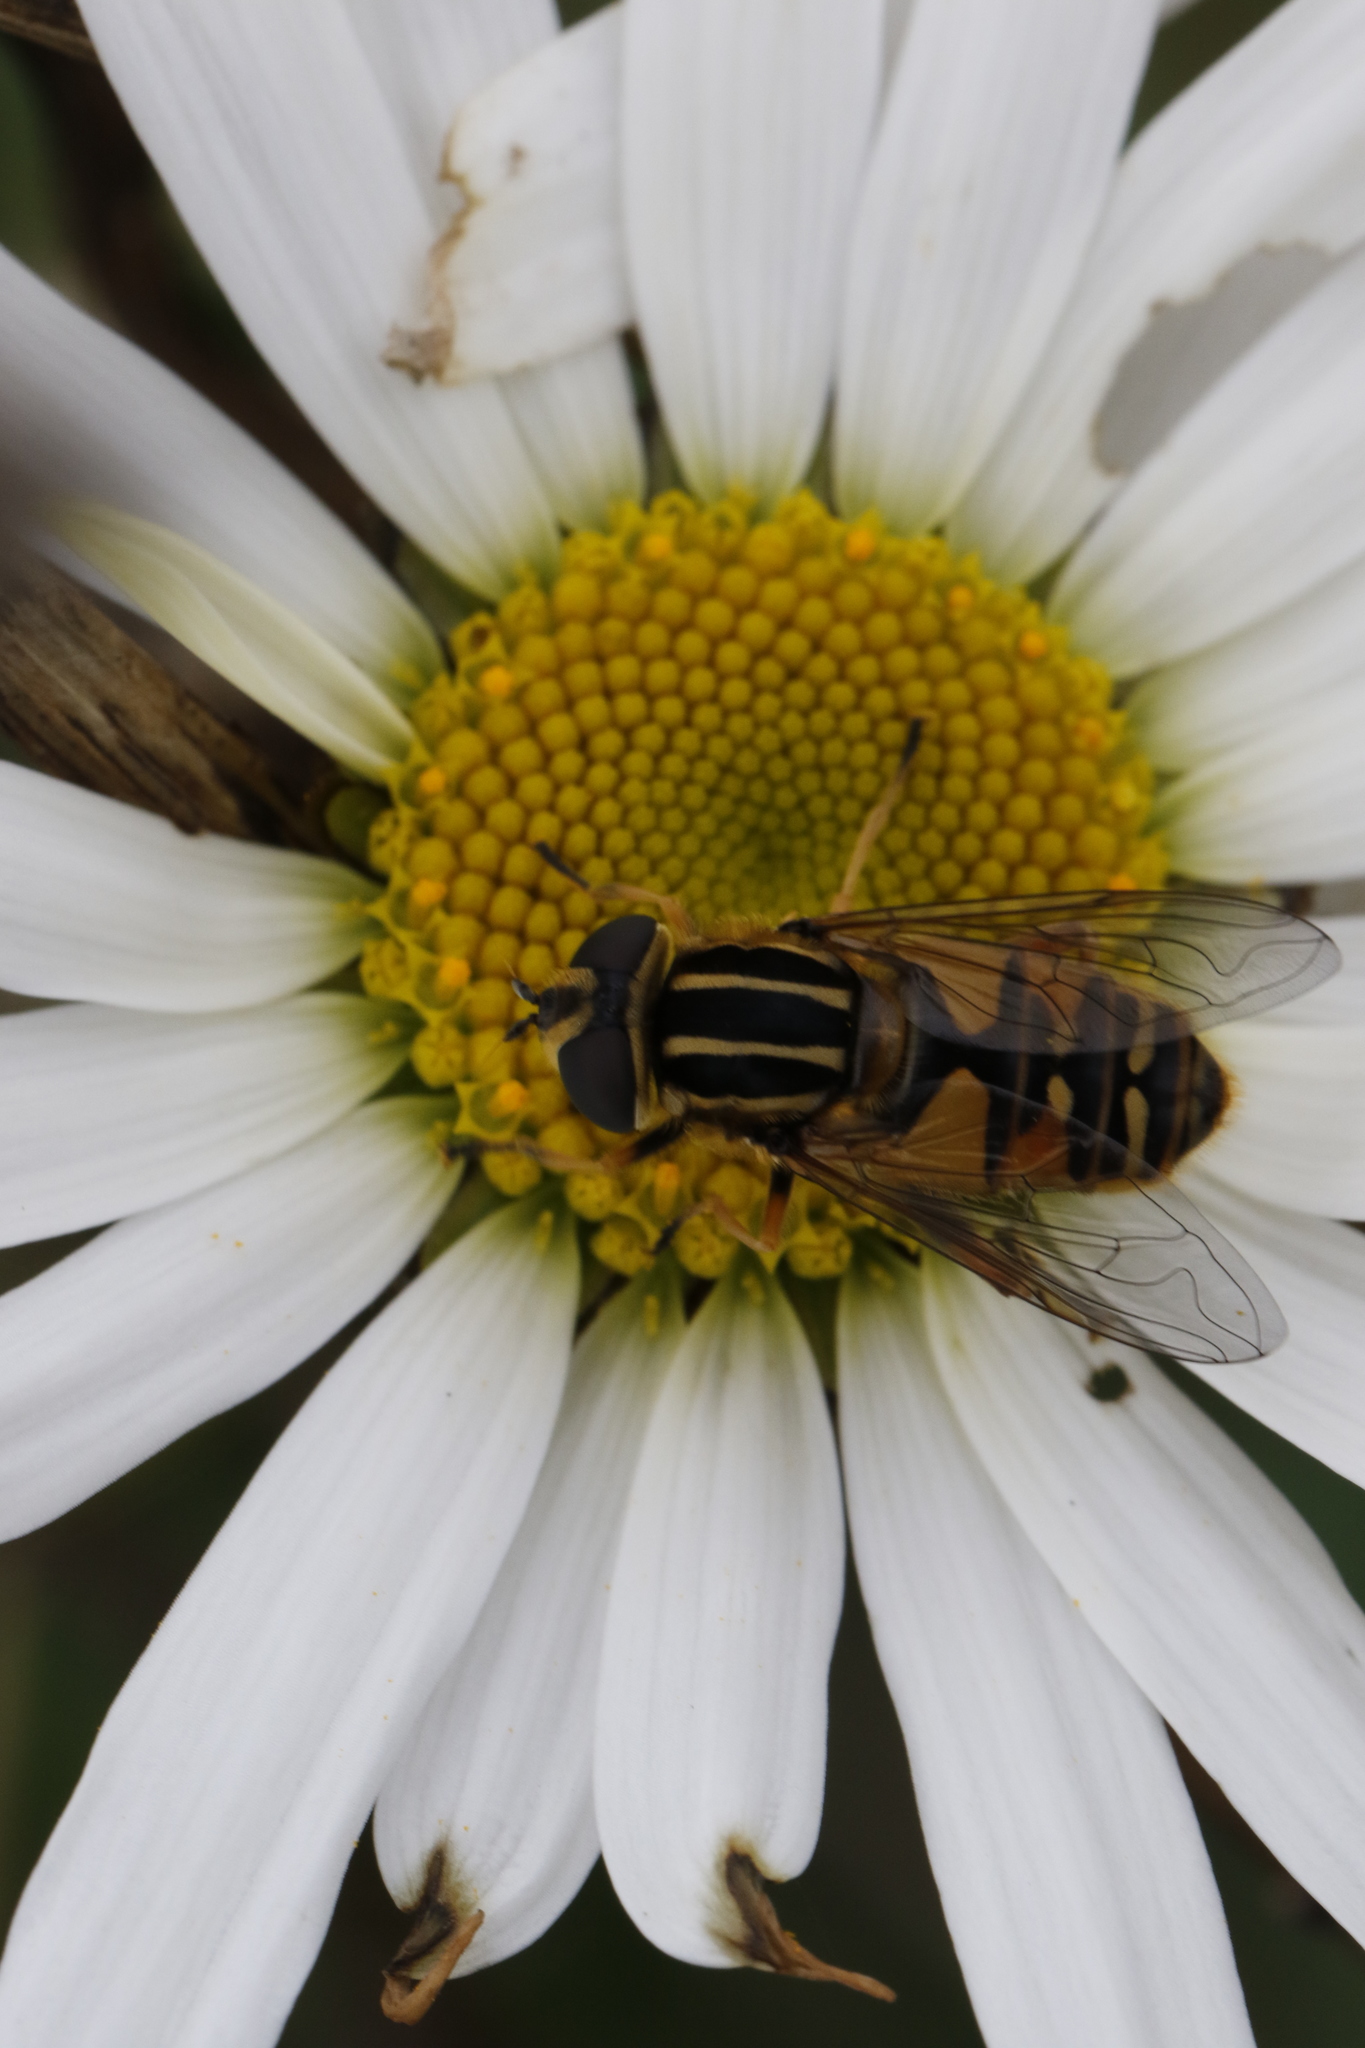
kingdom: Animalia
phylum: Arthropoda
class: Insecta
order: Diptera
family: Syrphidae
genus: Helophilus
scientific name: Helophilus pendulus
